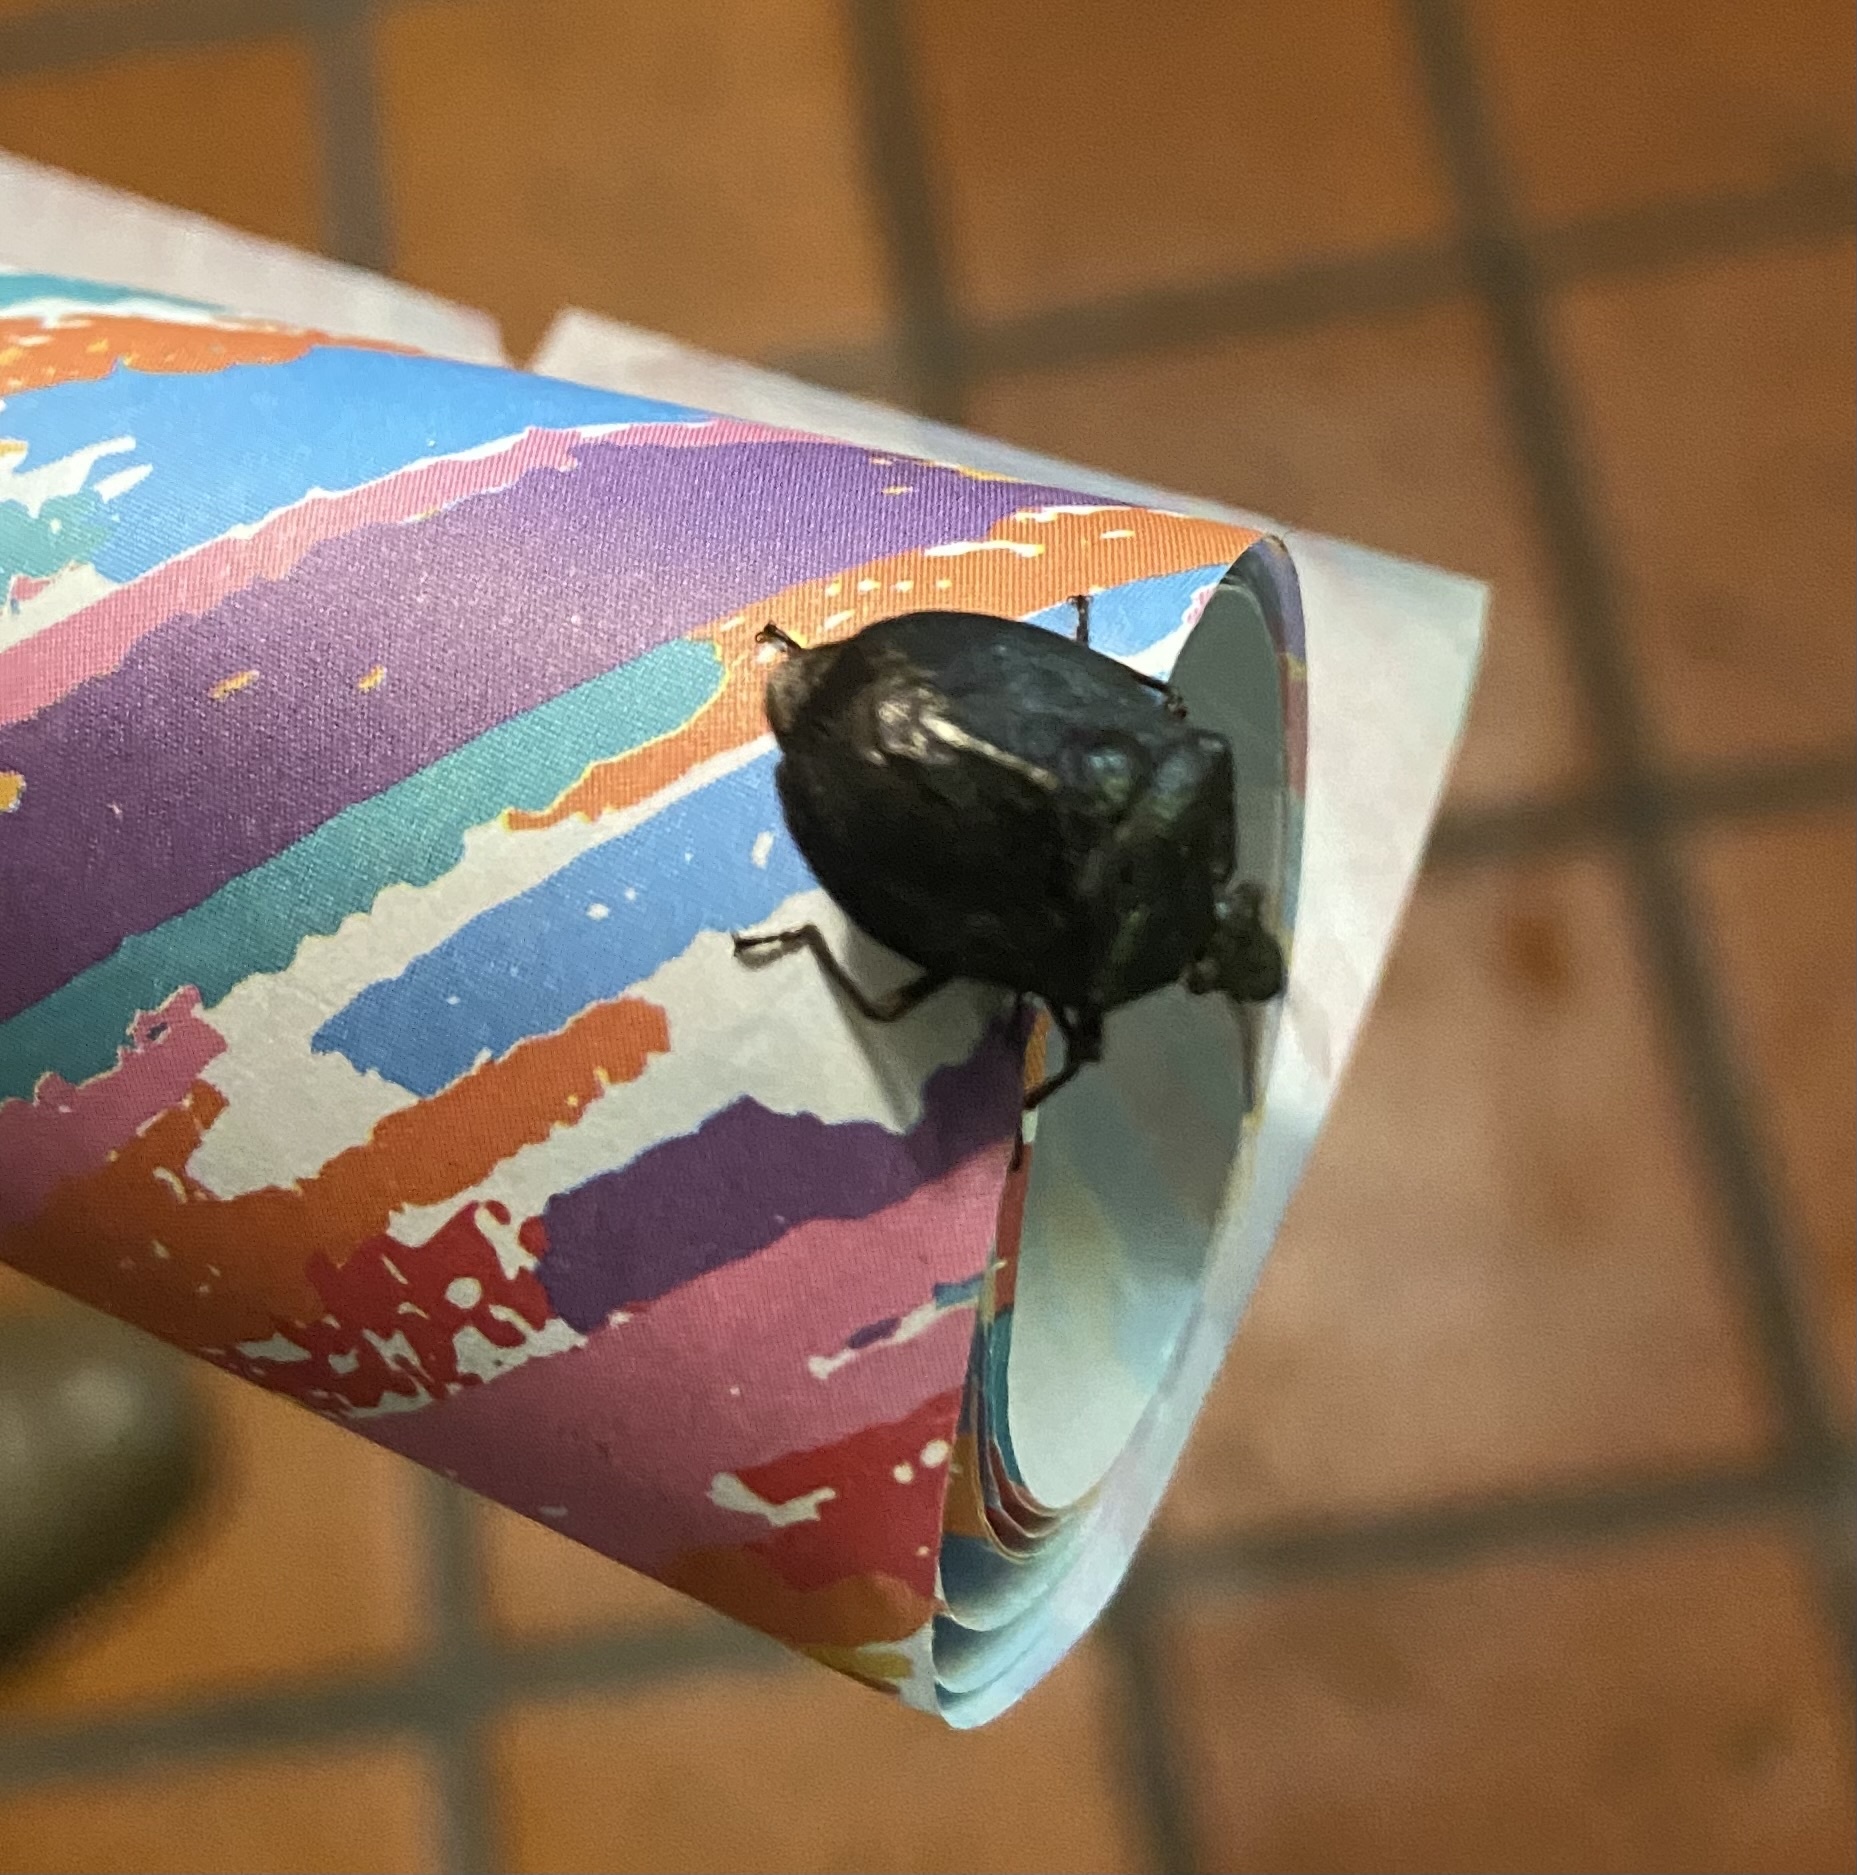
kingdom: Animalia
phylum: Arthropoda
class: Insecta
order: Hemiptera
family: Pentatomidae
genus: Antiteuchus
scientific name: Antiteuchus mixtus
